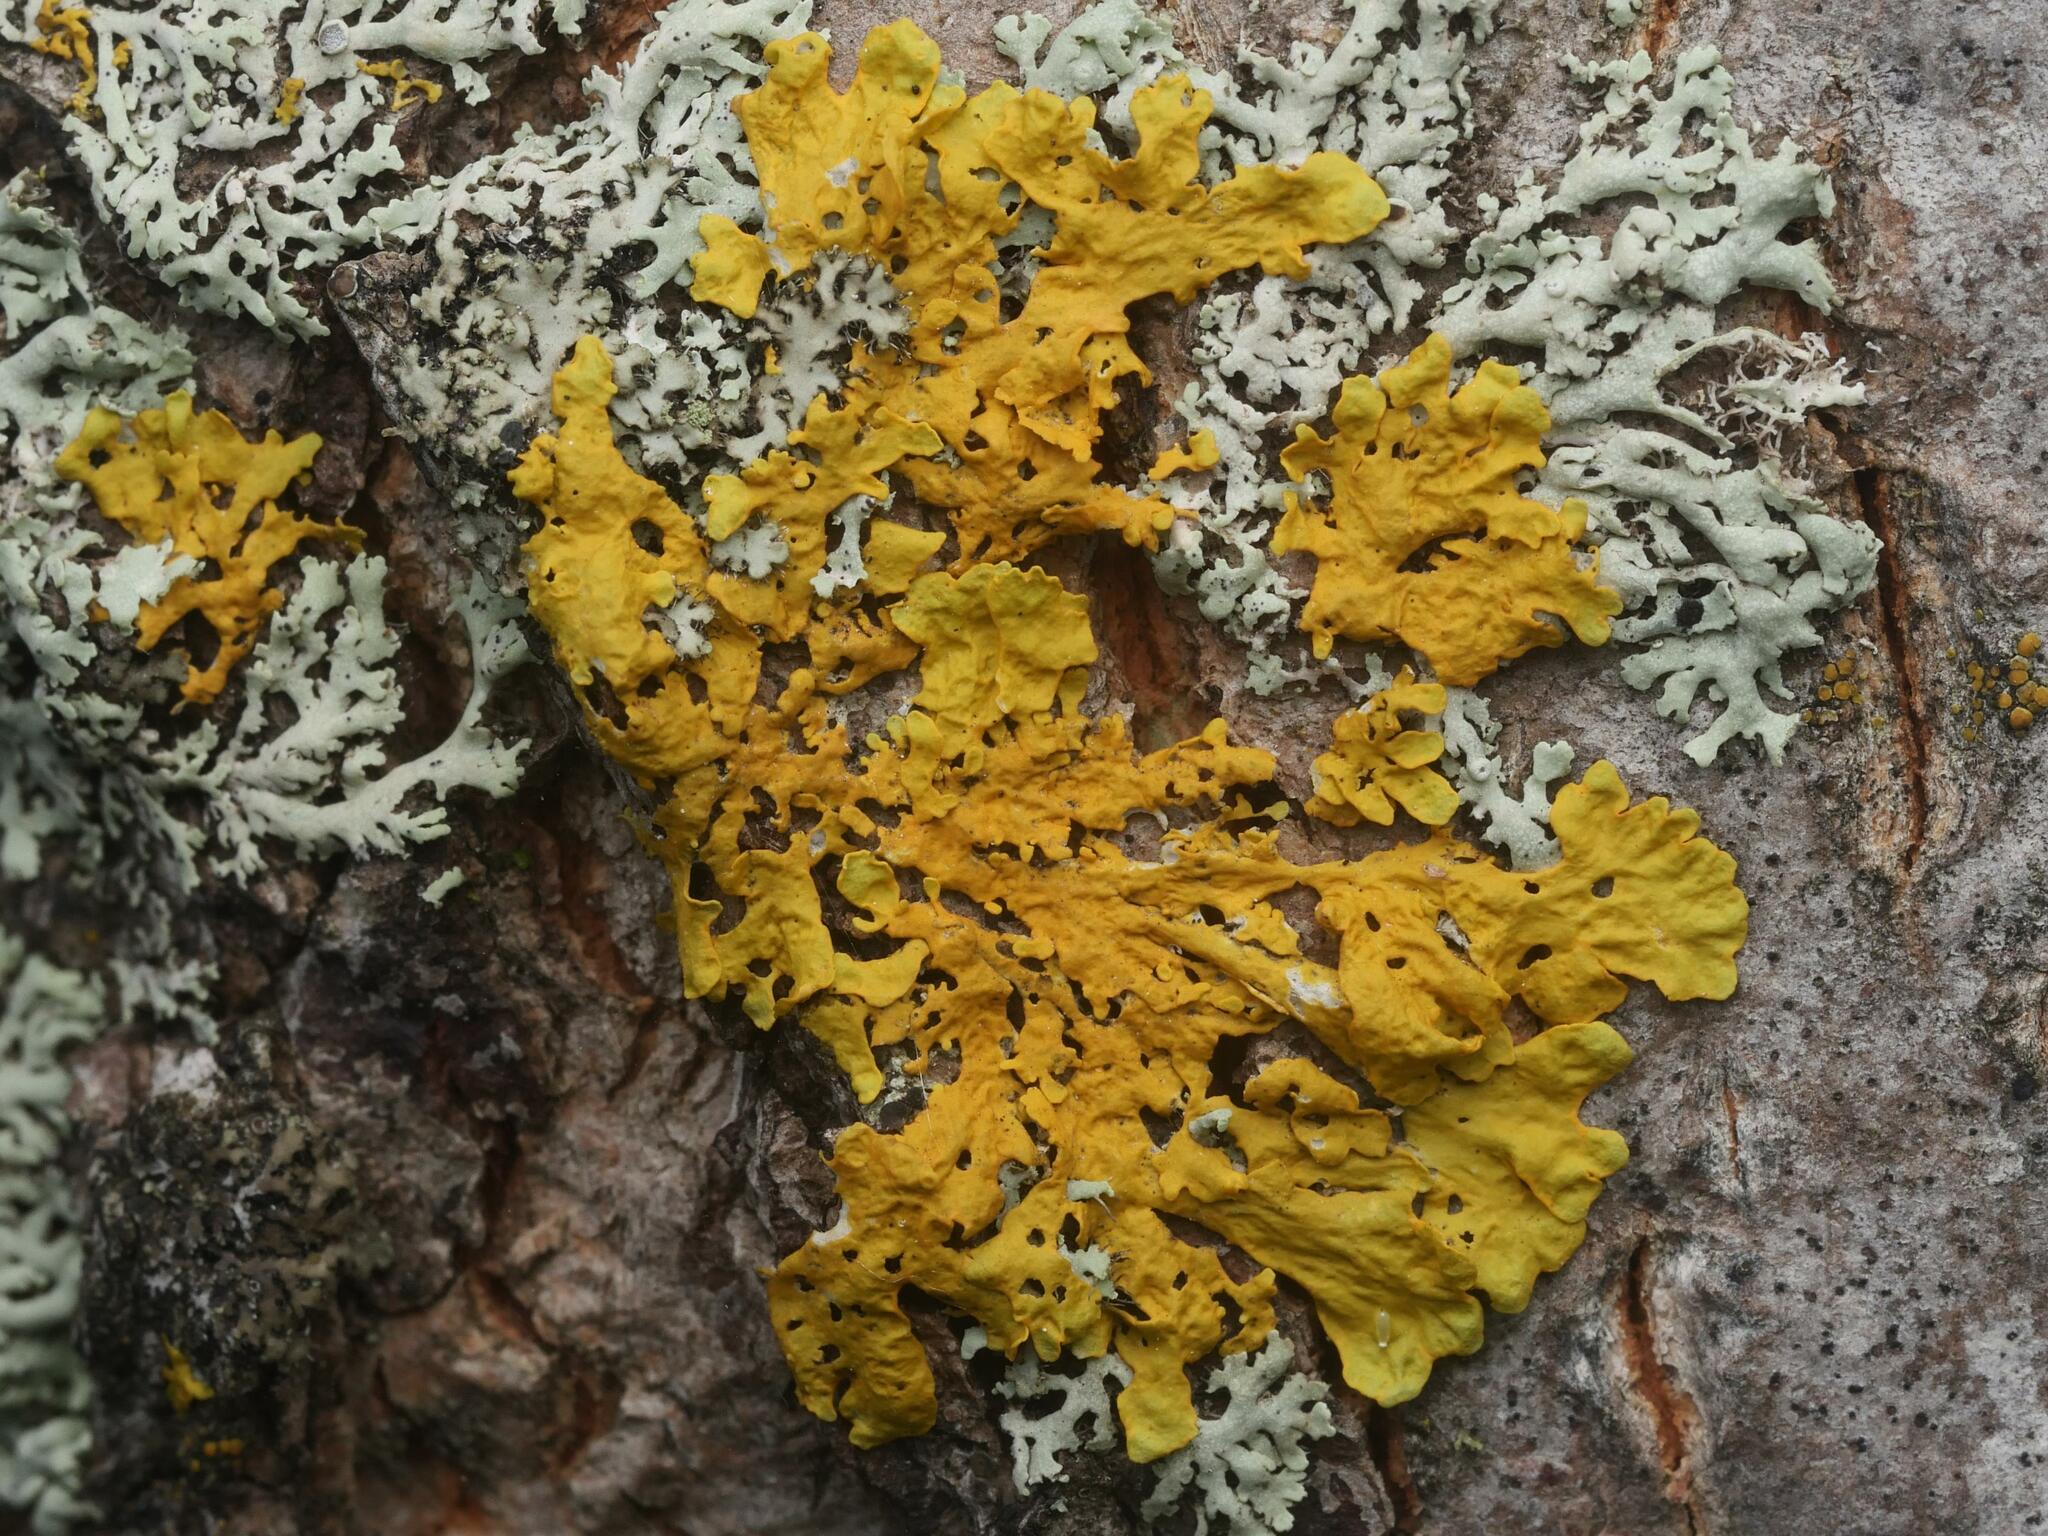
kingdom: Fungi
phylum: Ascomycota
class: Lecanoromycetes
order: Teloschistales
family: Teloschistaceae
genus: Xanthoria
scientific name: Xanthoria parietina
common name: Common orange lichen
